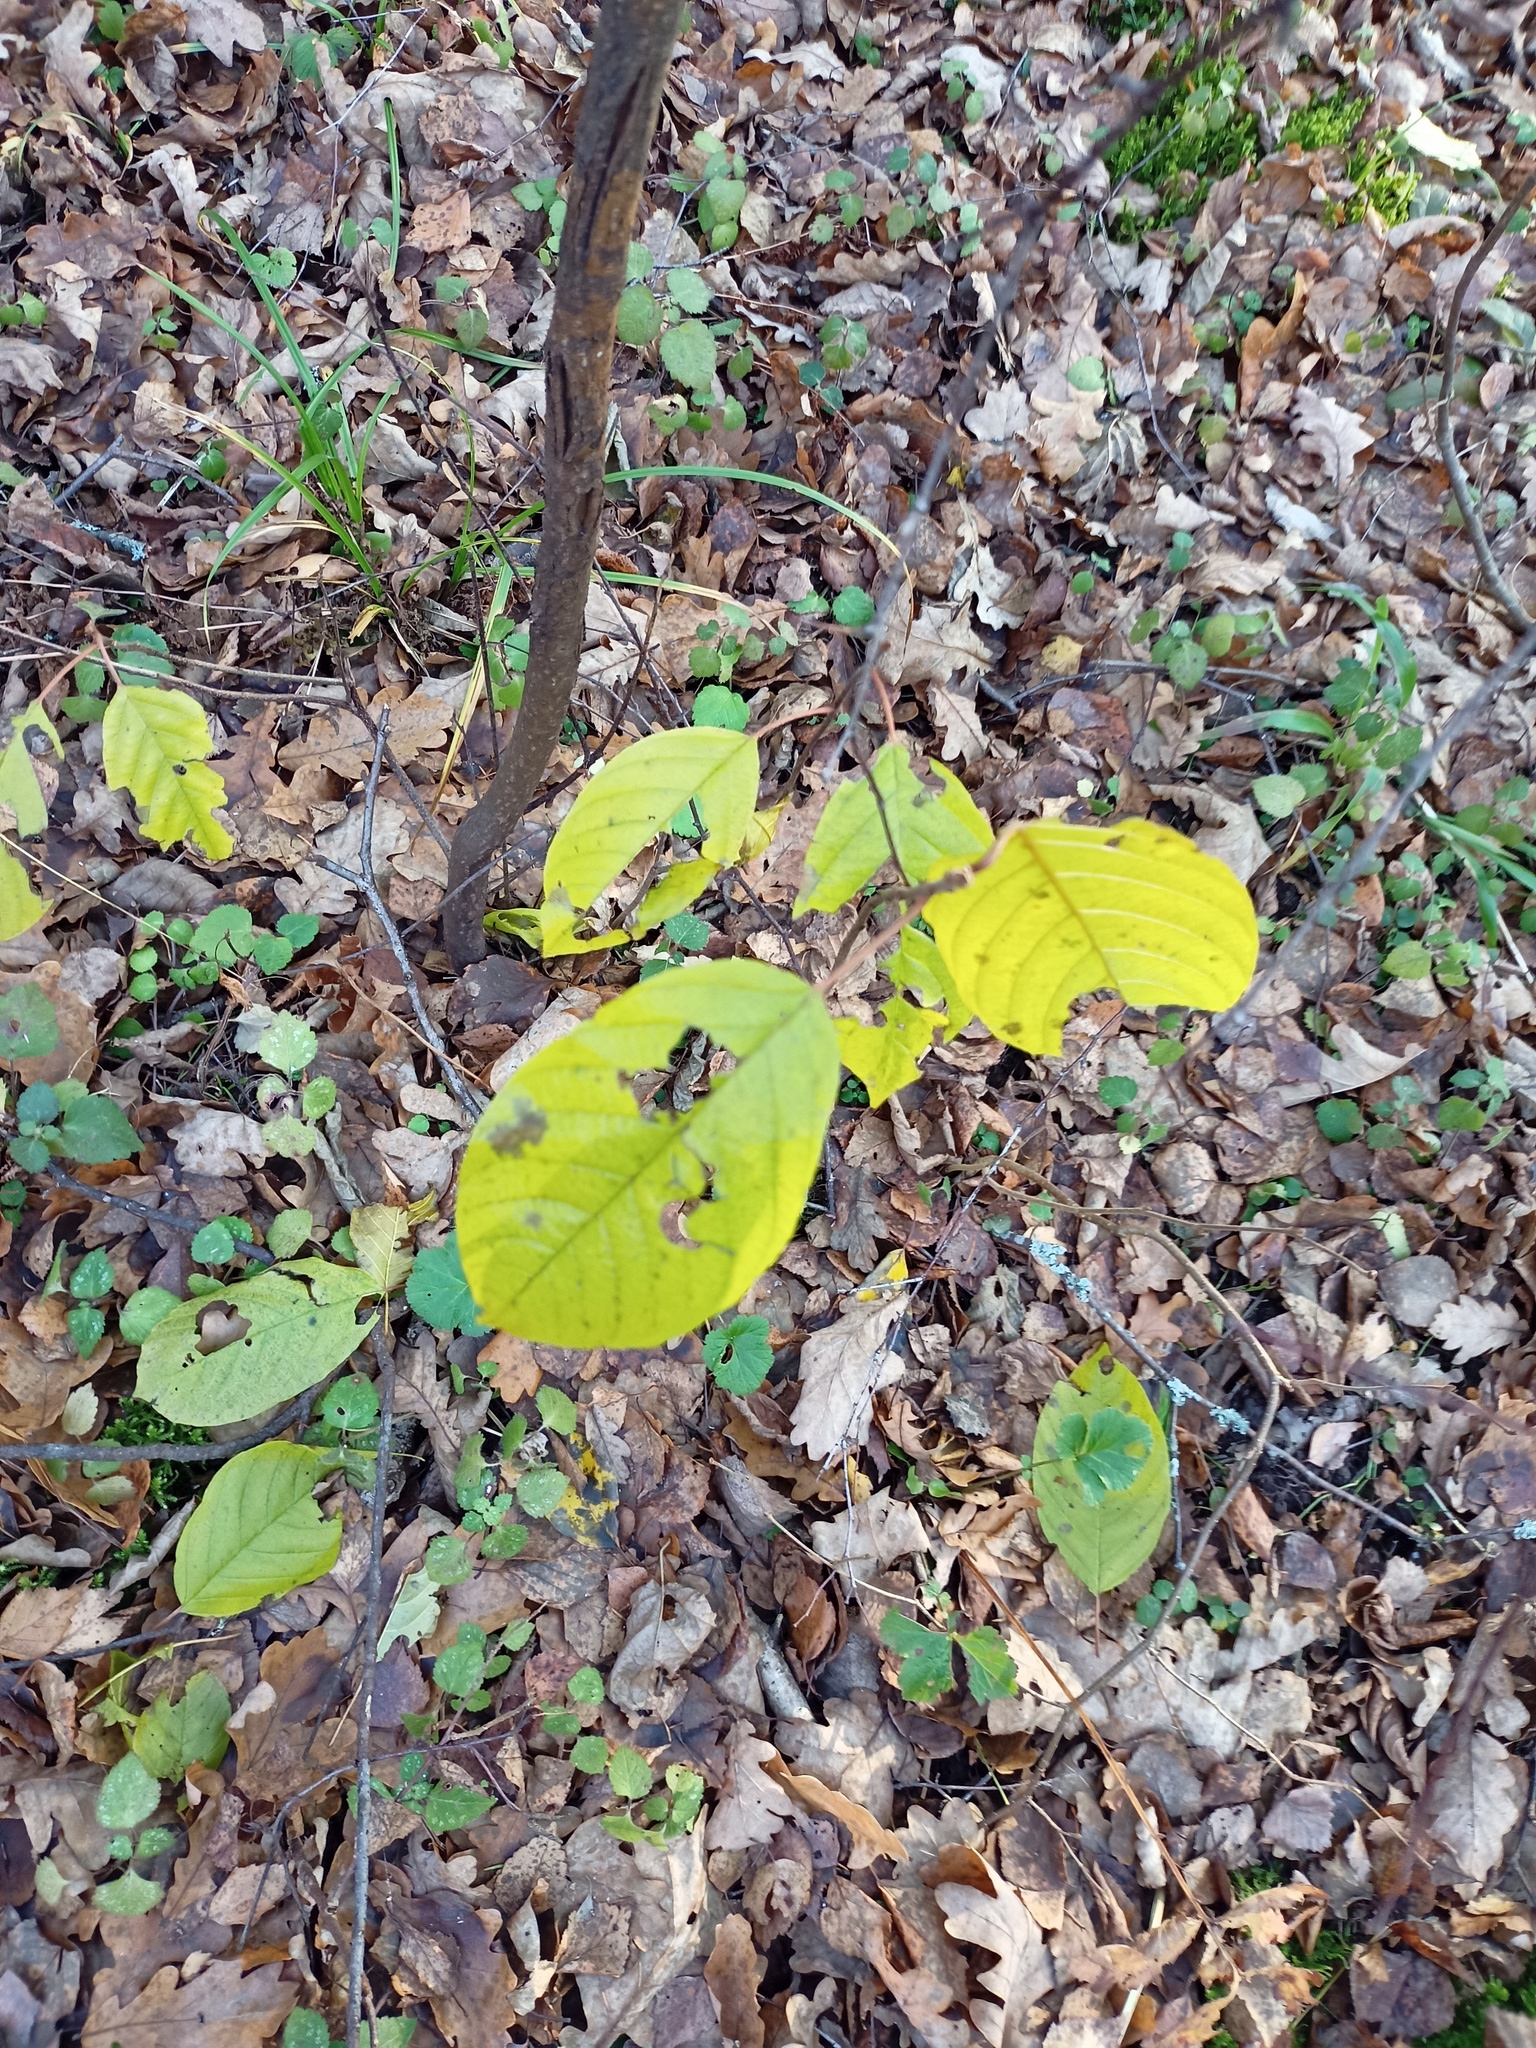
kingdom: Plantae
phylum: Tracheophyta
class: Magnoliopsida
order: Rosales
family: Rhamnaceae
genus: Frangula
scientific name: Frangula alnus
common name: Alder buckthorn
